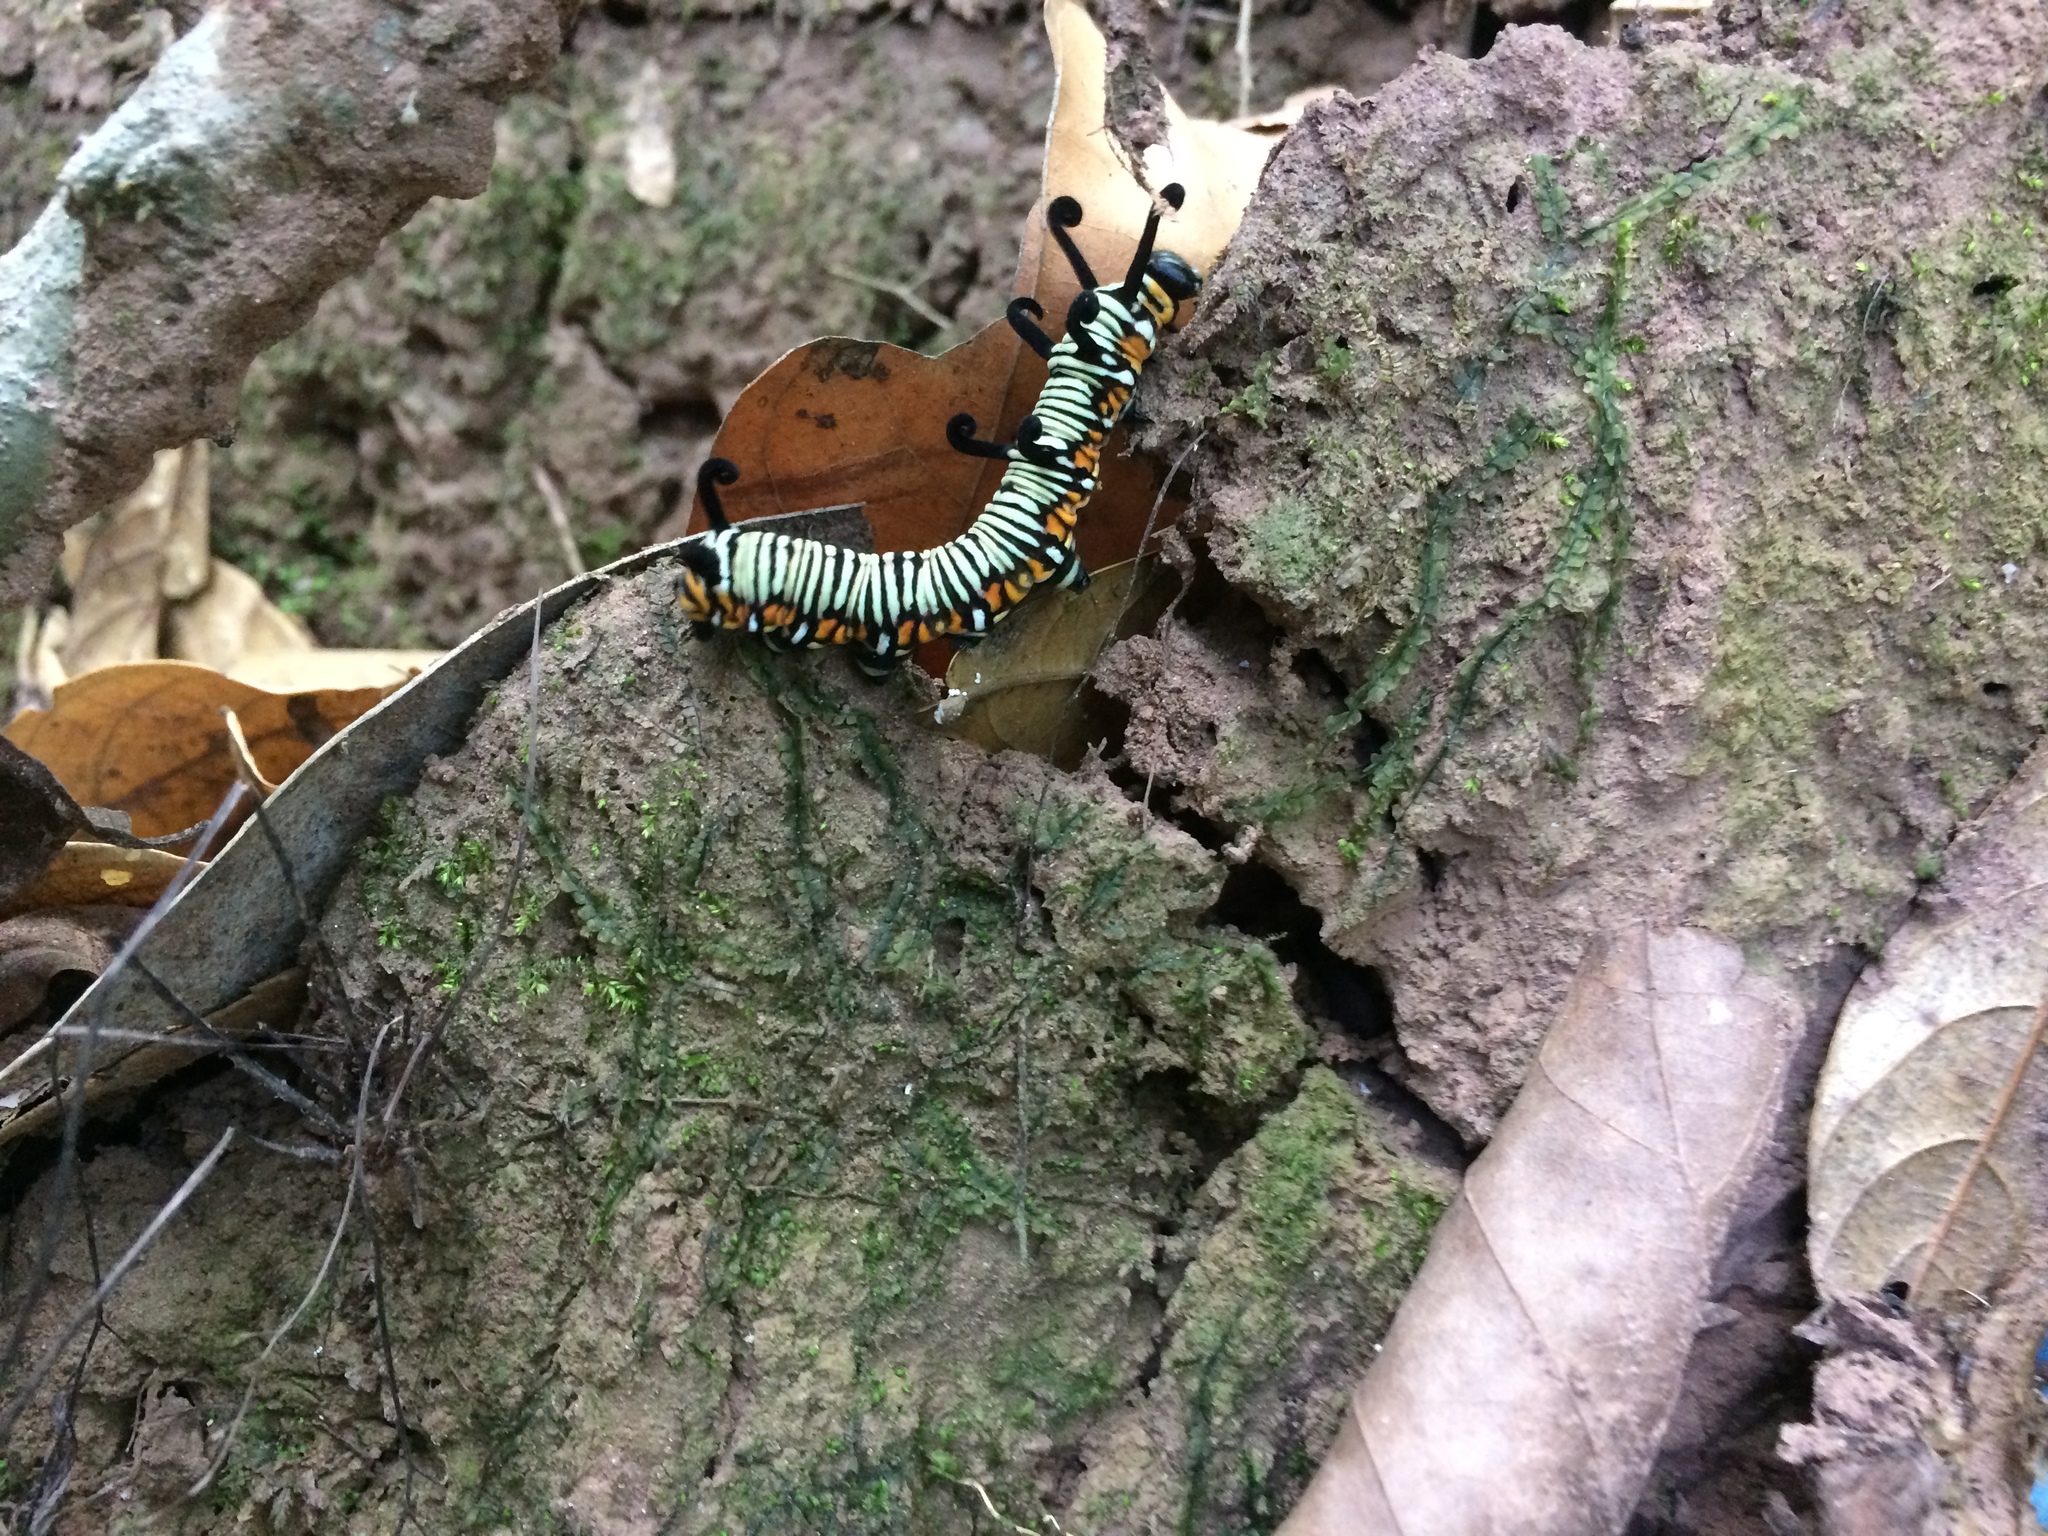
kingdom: Animalia
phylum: Arthropoda
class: Insecta
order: Lepidoptera
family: Nymphalidae
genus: Euploea
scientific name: Euploea eunice
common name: Blue-banded king crow butterfly
